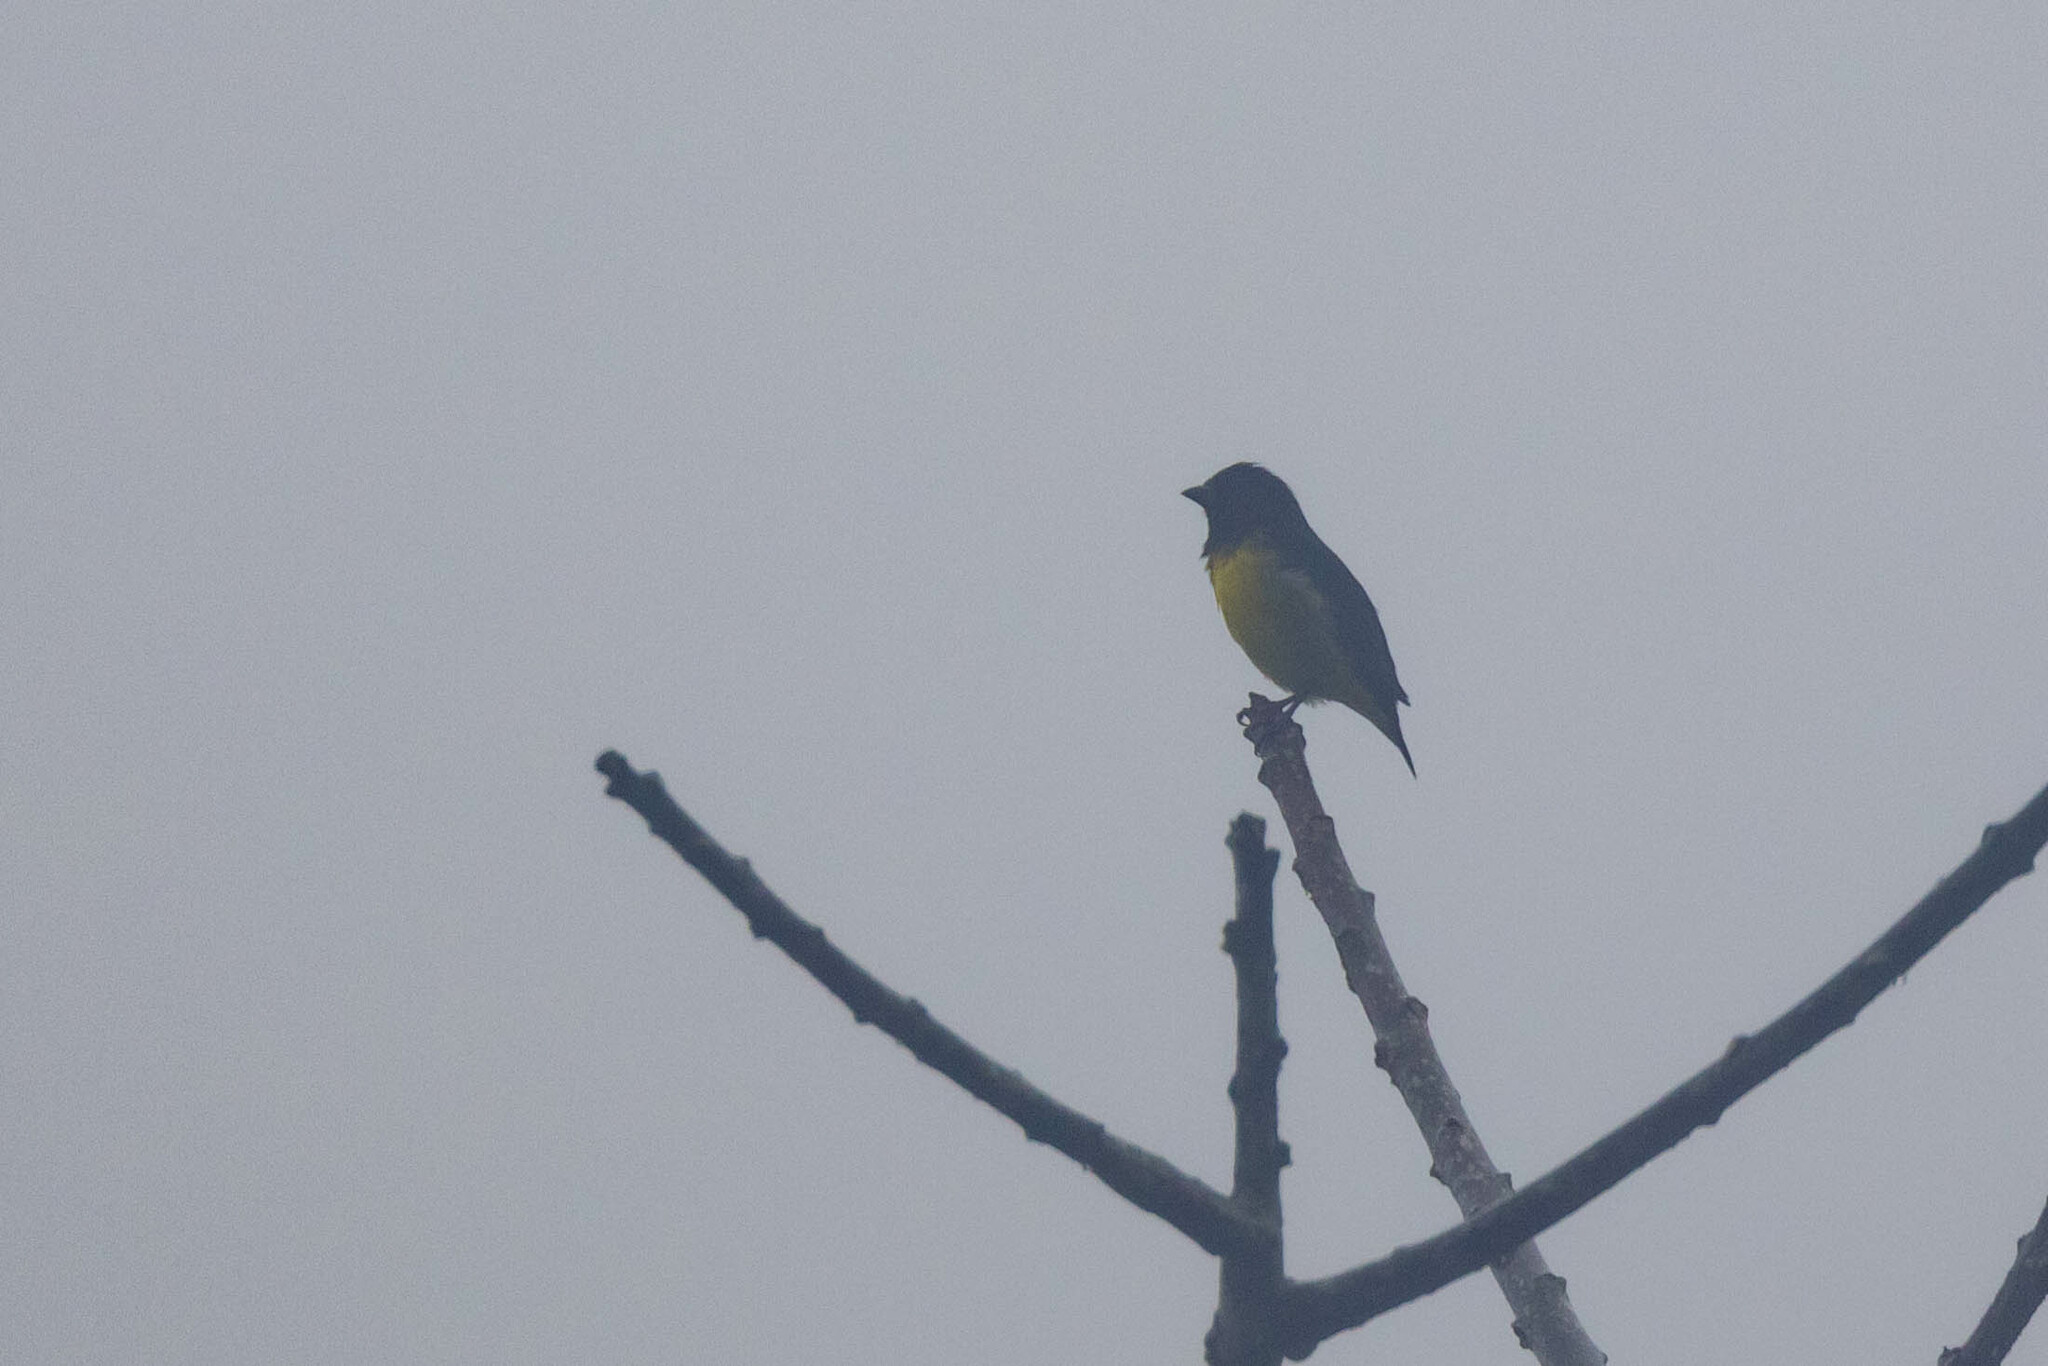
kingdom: Animalia
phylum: Chordata
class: Aves
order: Passeriformes
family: Fringillidae
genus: Spinus
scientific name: Spinus xanthogastrus
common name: Yellow-bellied siskin
